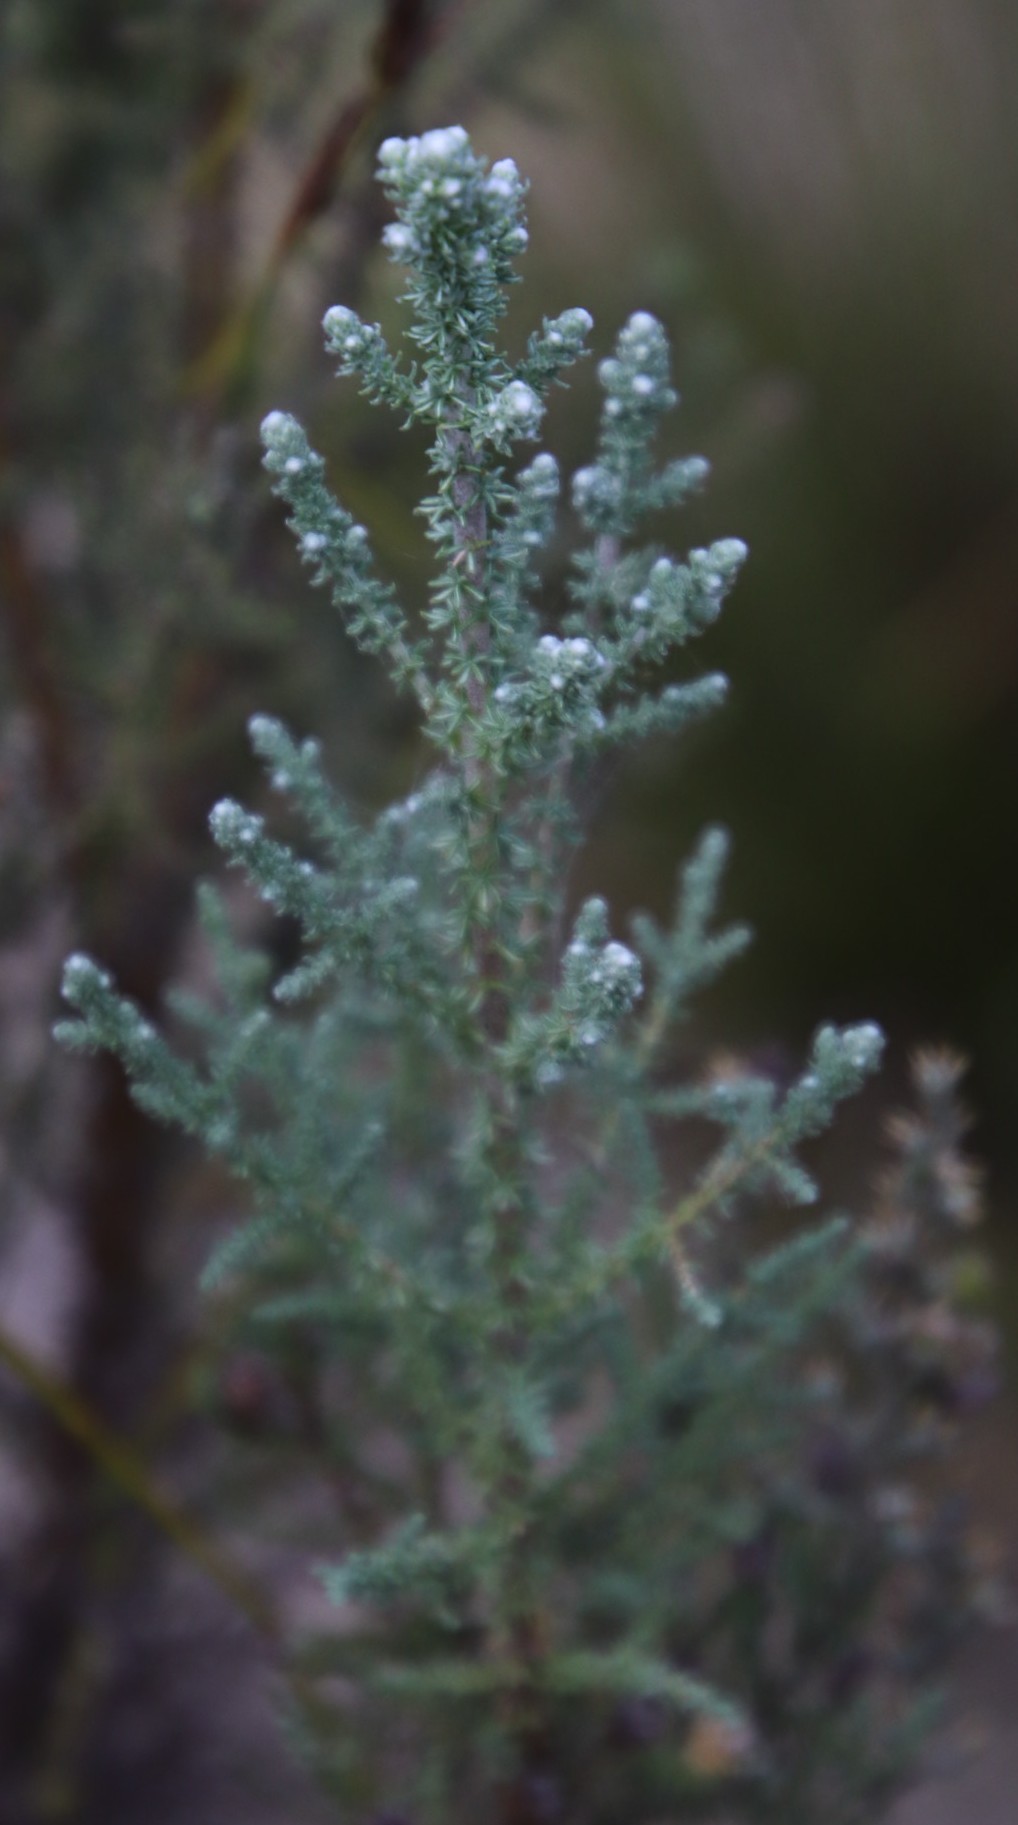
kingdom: Plantae
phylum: Tracheophyta
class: Magnoliopsida
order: Asterales
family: Asteraceae
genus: Seriphium
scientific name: Seriphium plumosum
